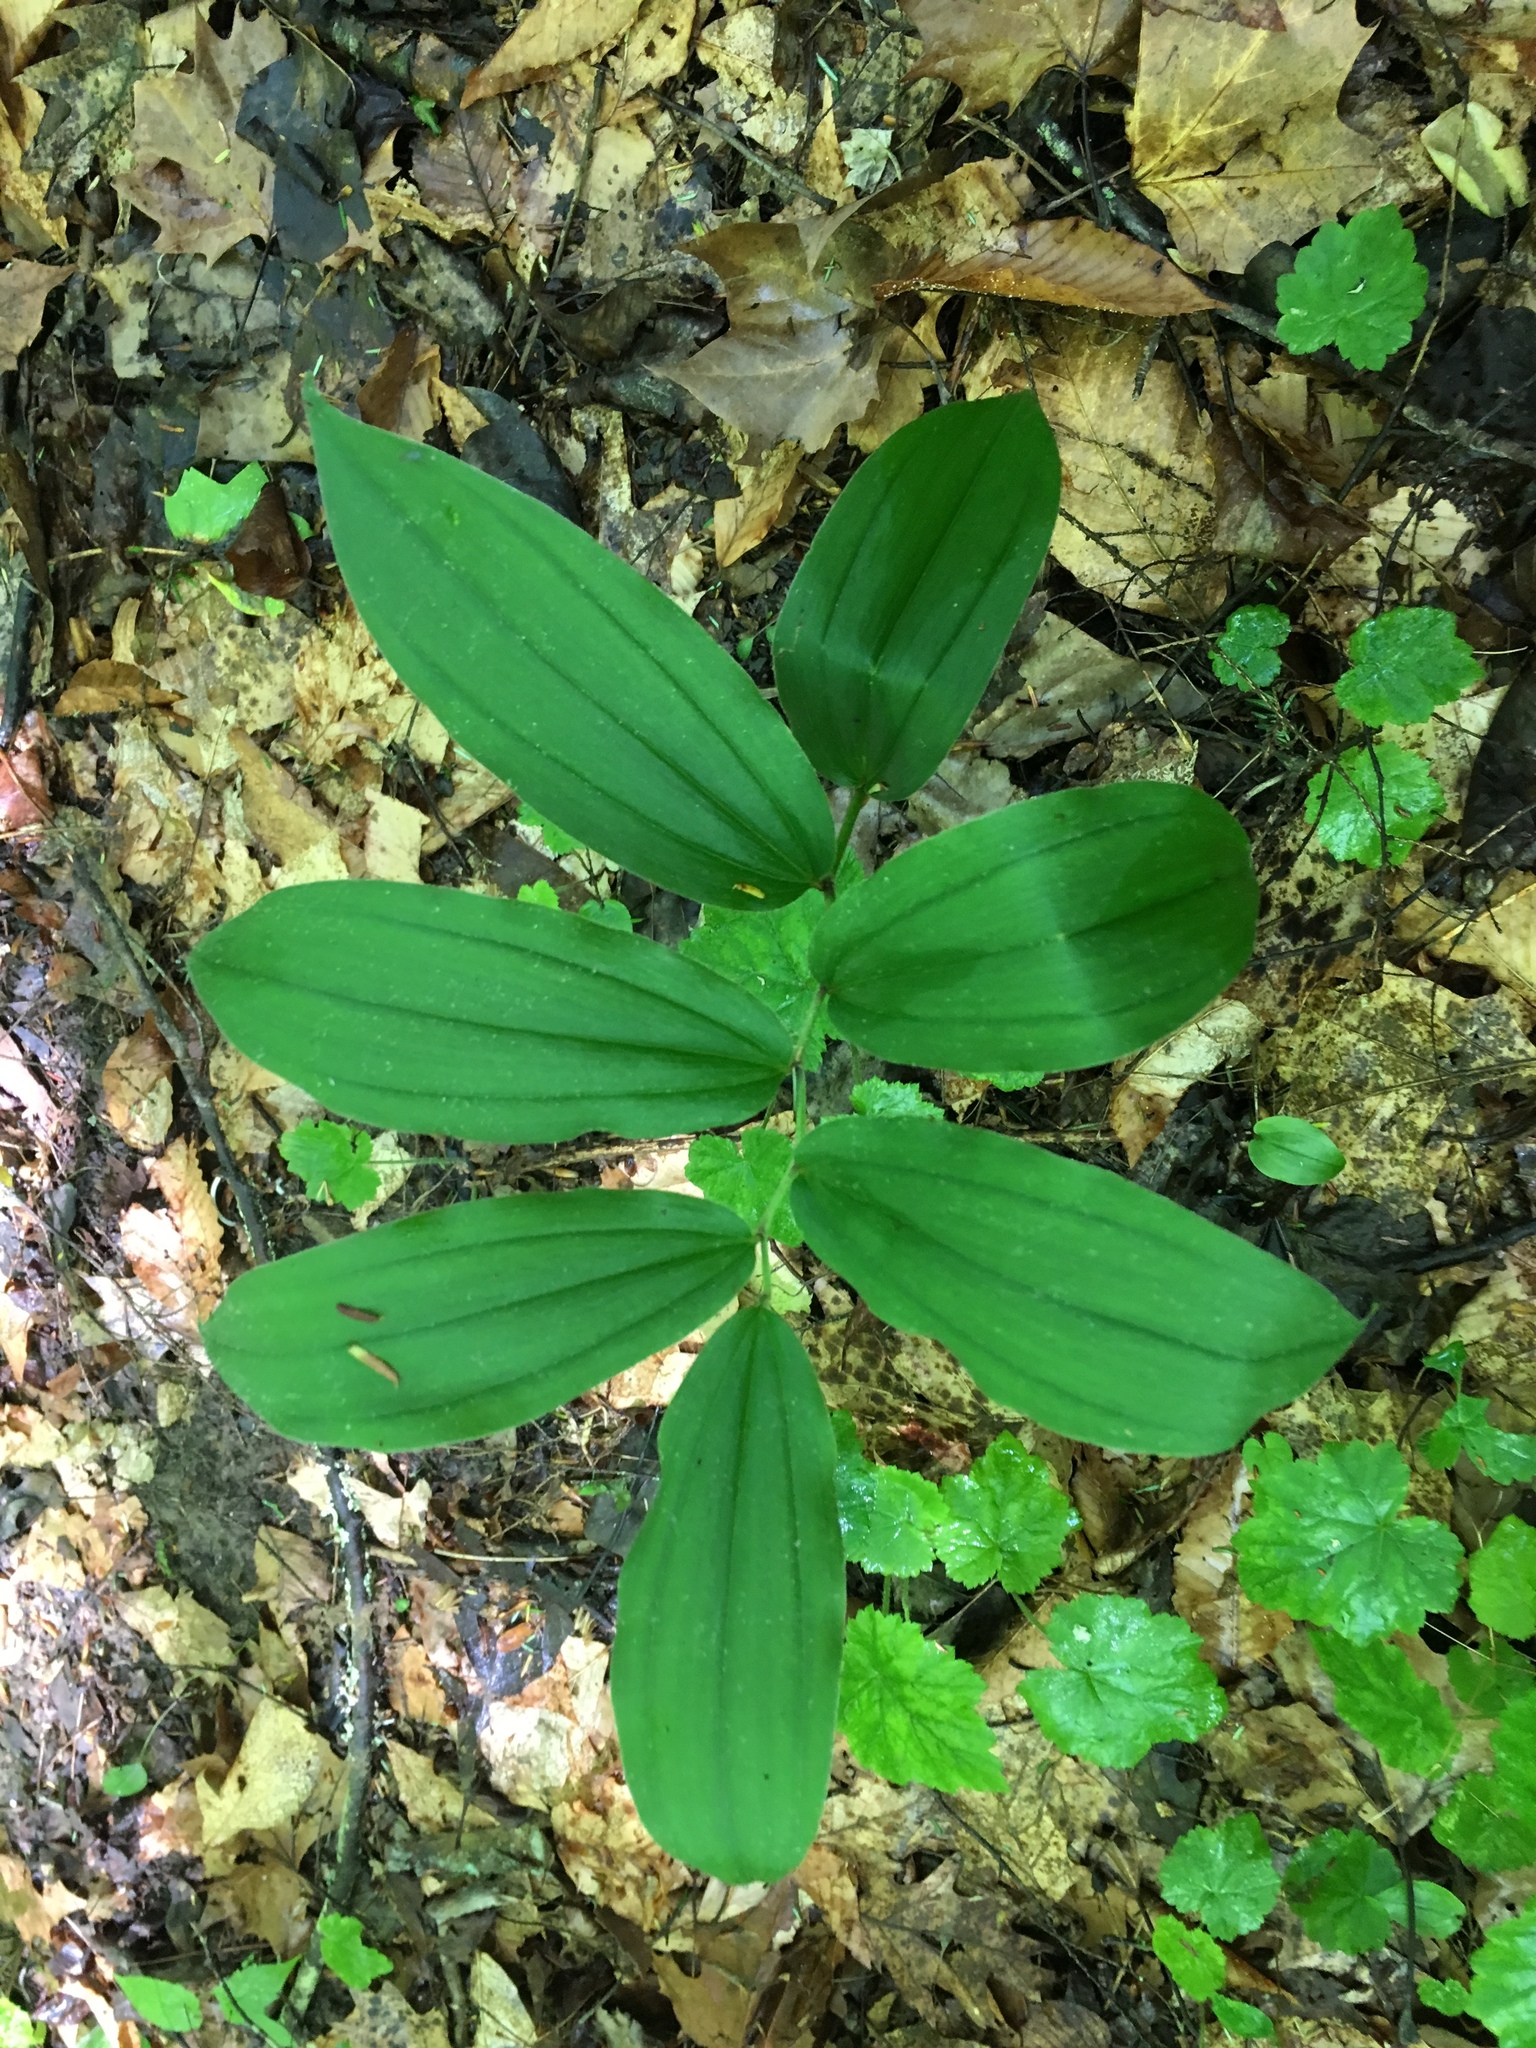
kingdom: Plantae
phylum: Tracheophyta
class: Liliopsida
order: Asparagales
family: Asparagaceae
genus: Maianthemum
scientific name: Maianthemum racemosum
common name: False spikenard
